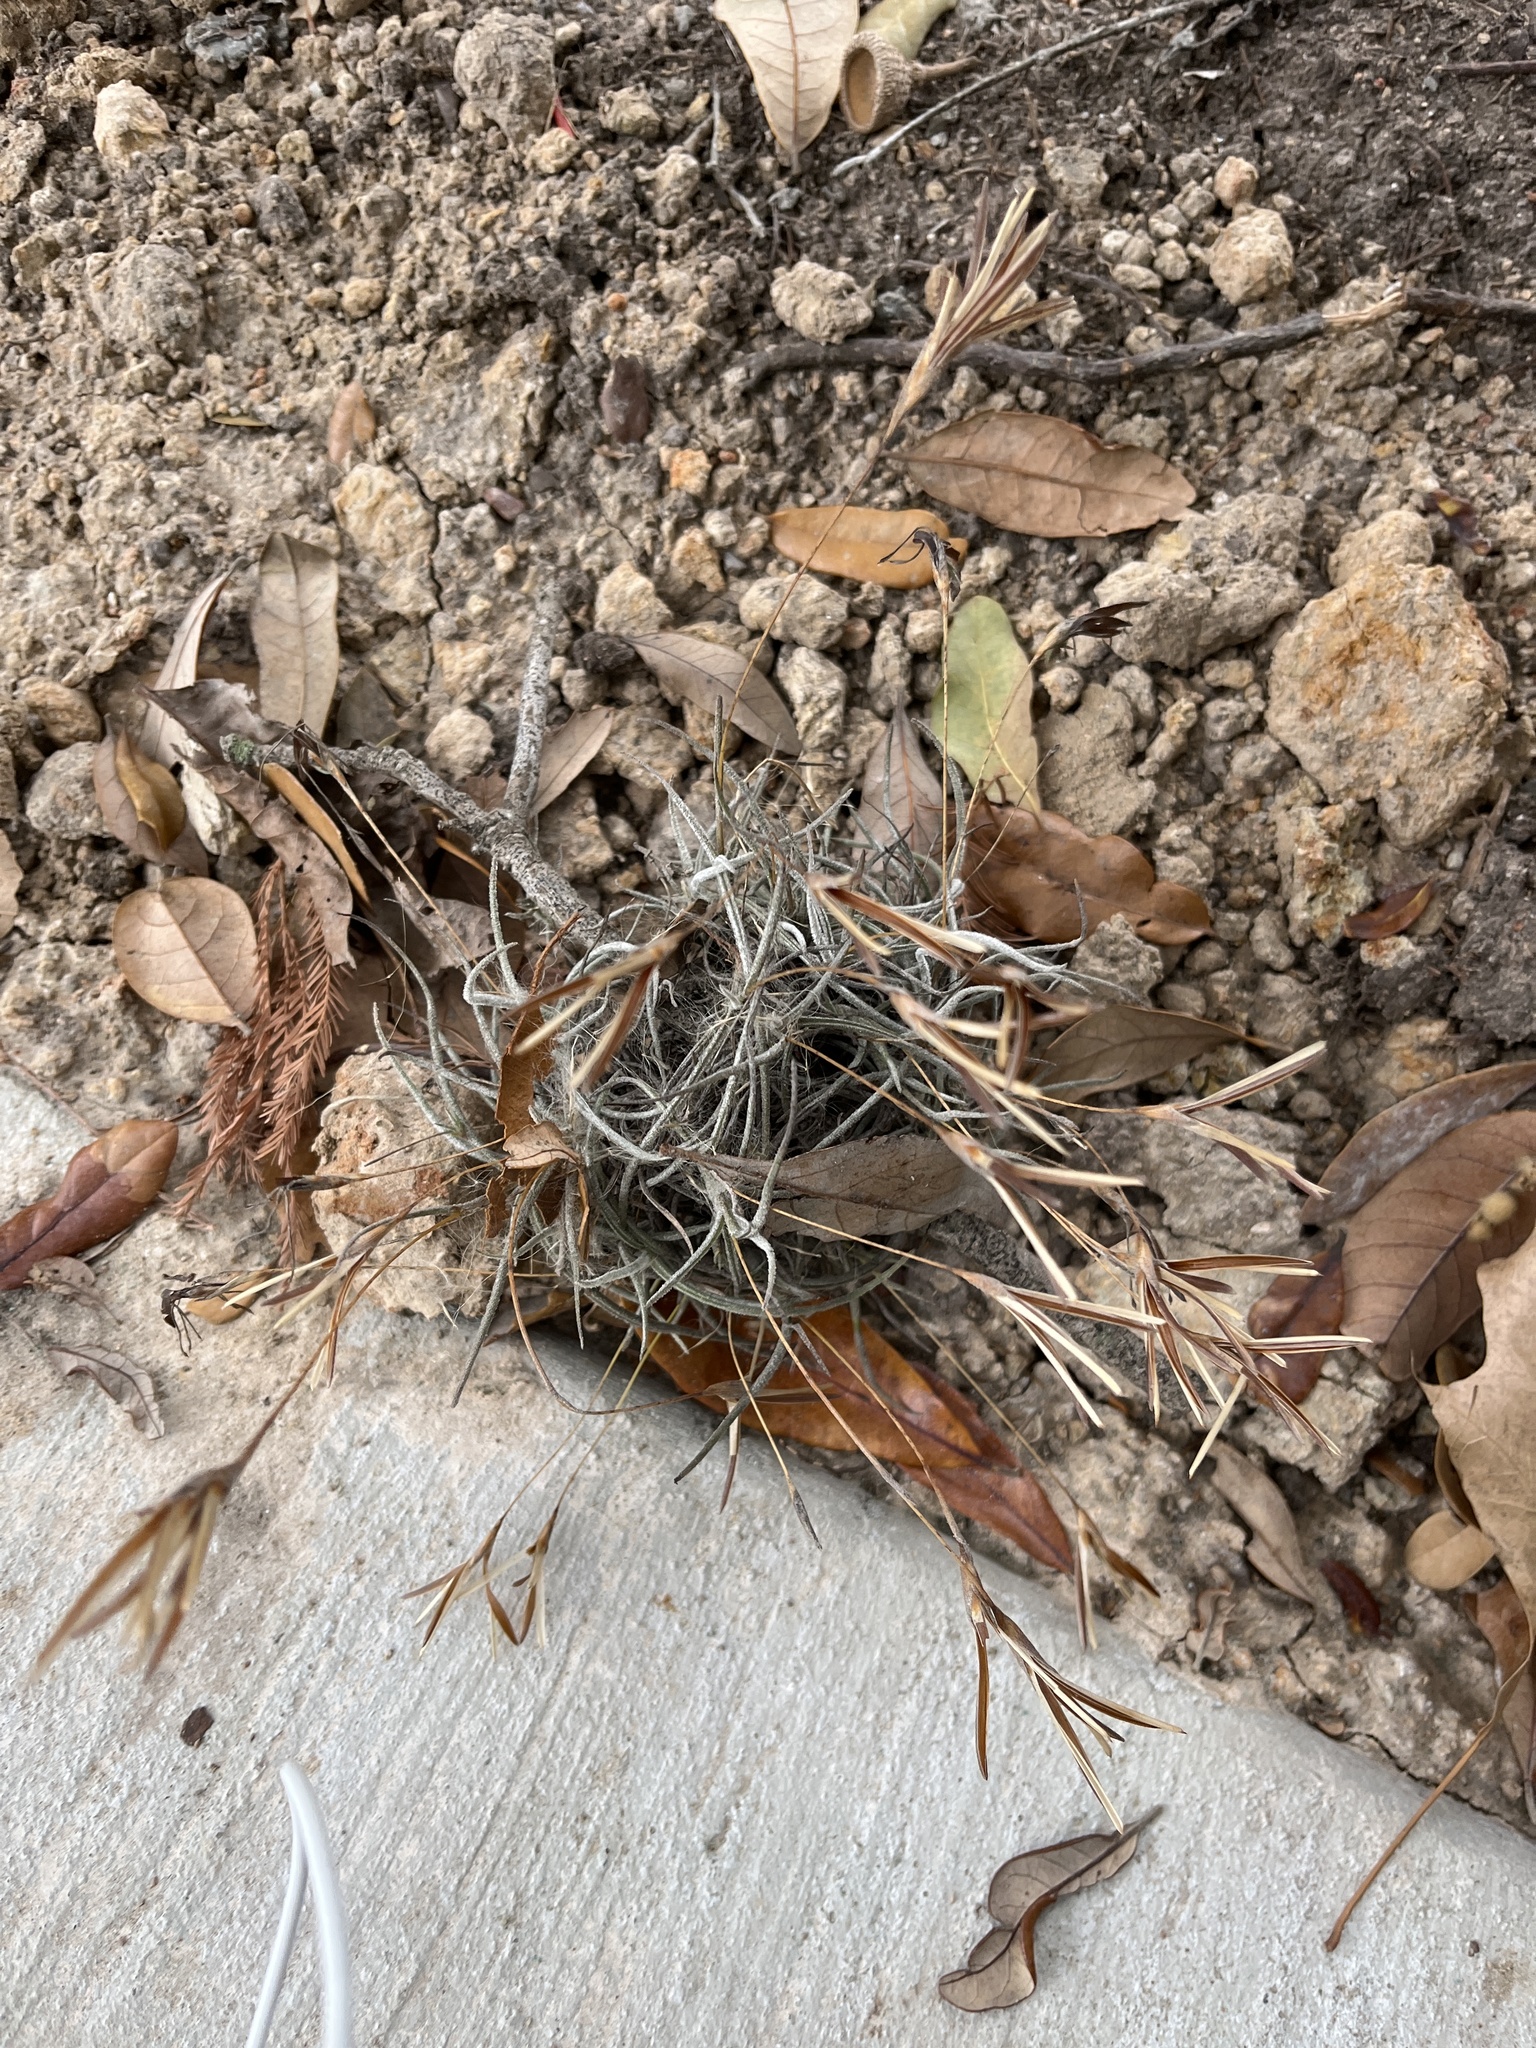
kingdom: Plantae
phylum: Tracheophyta
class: Liliopsida
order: Poales
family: Bromeliaceae
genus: Tillandsia
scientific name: Tillandsia recurvata
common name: Small ballmoss
